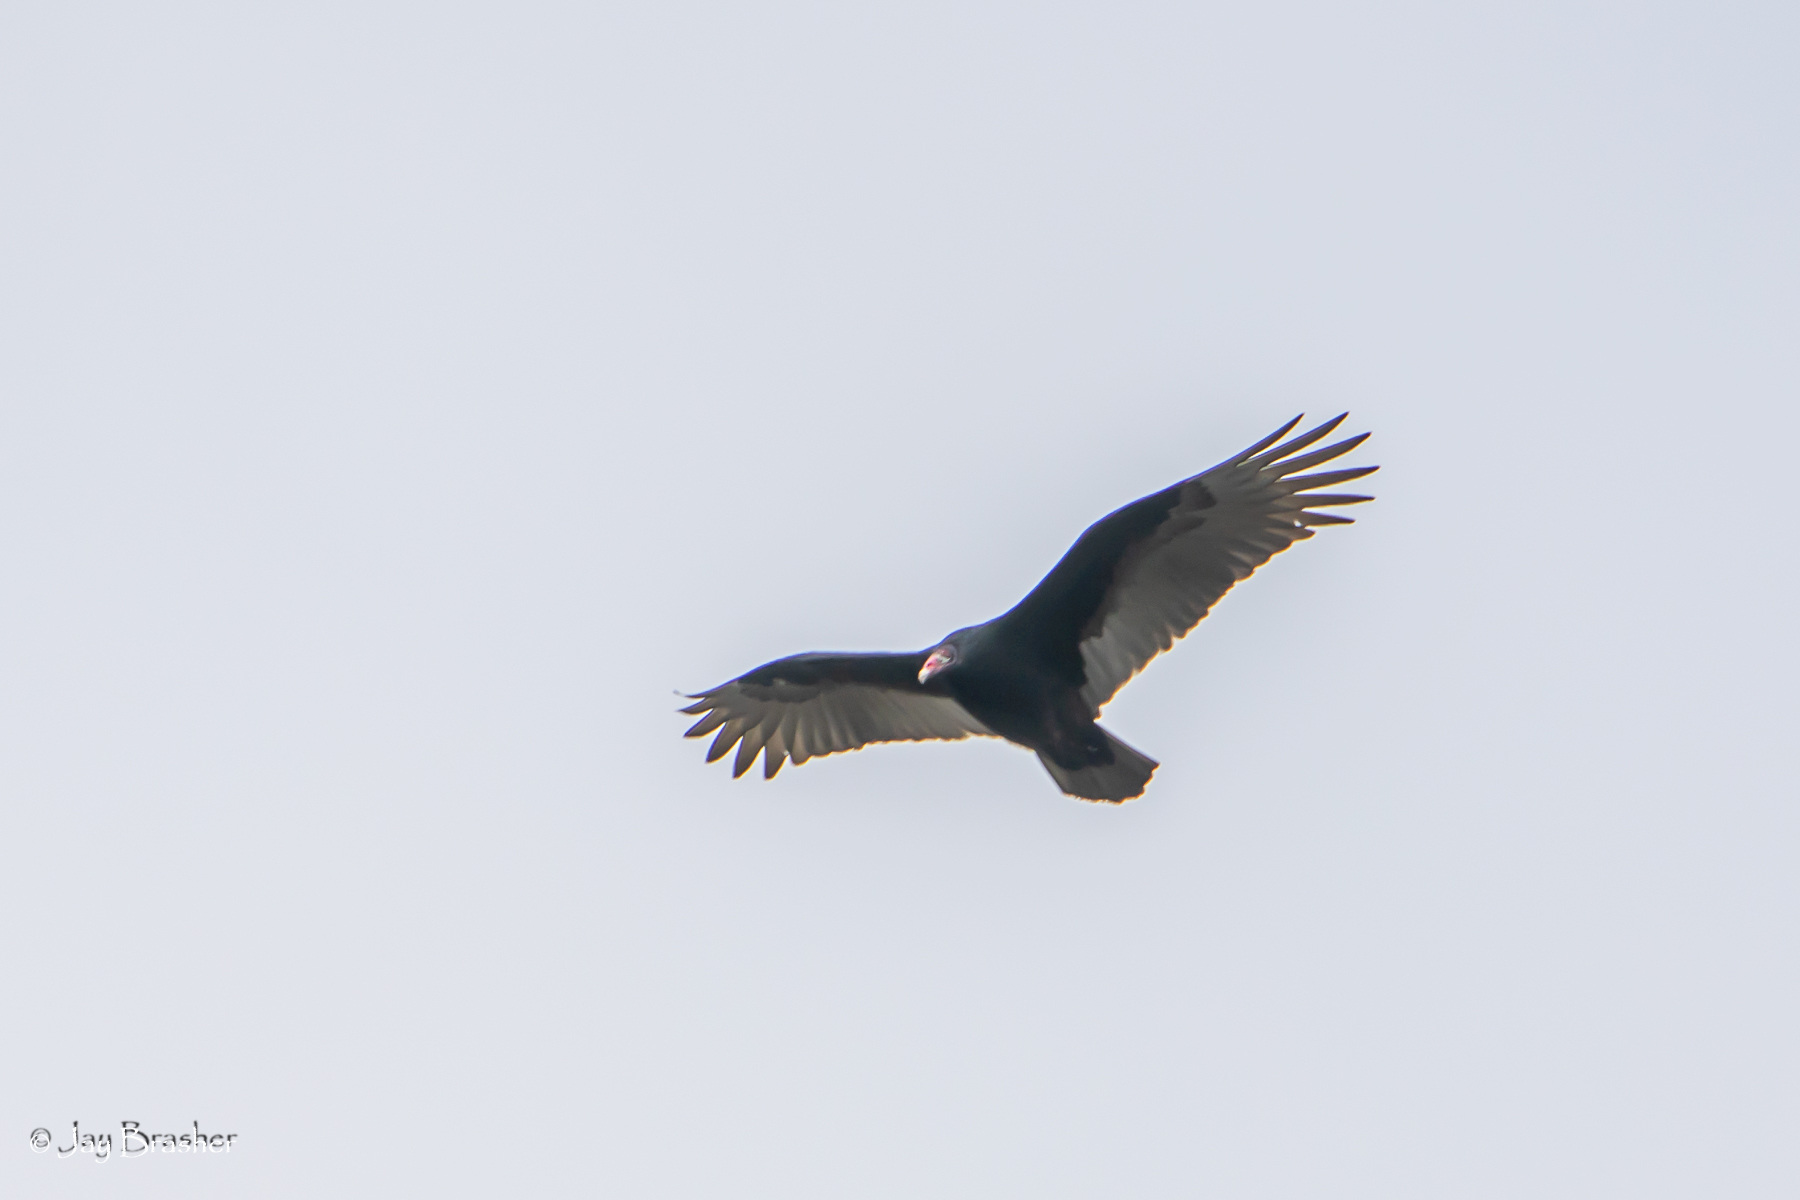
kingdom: Animalia
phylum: Chordata
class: Aves
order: Accipitriformes
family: Cathartidae
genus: Cathartes
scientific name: Cathartes aura
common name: Turkey vulture
